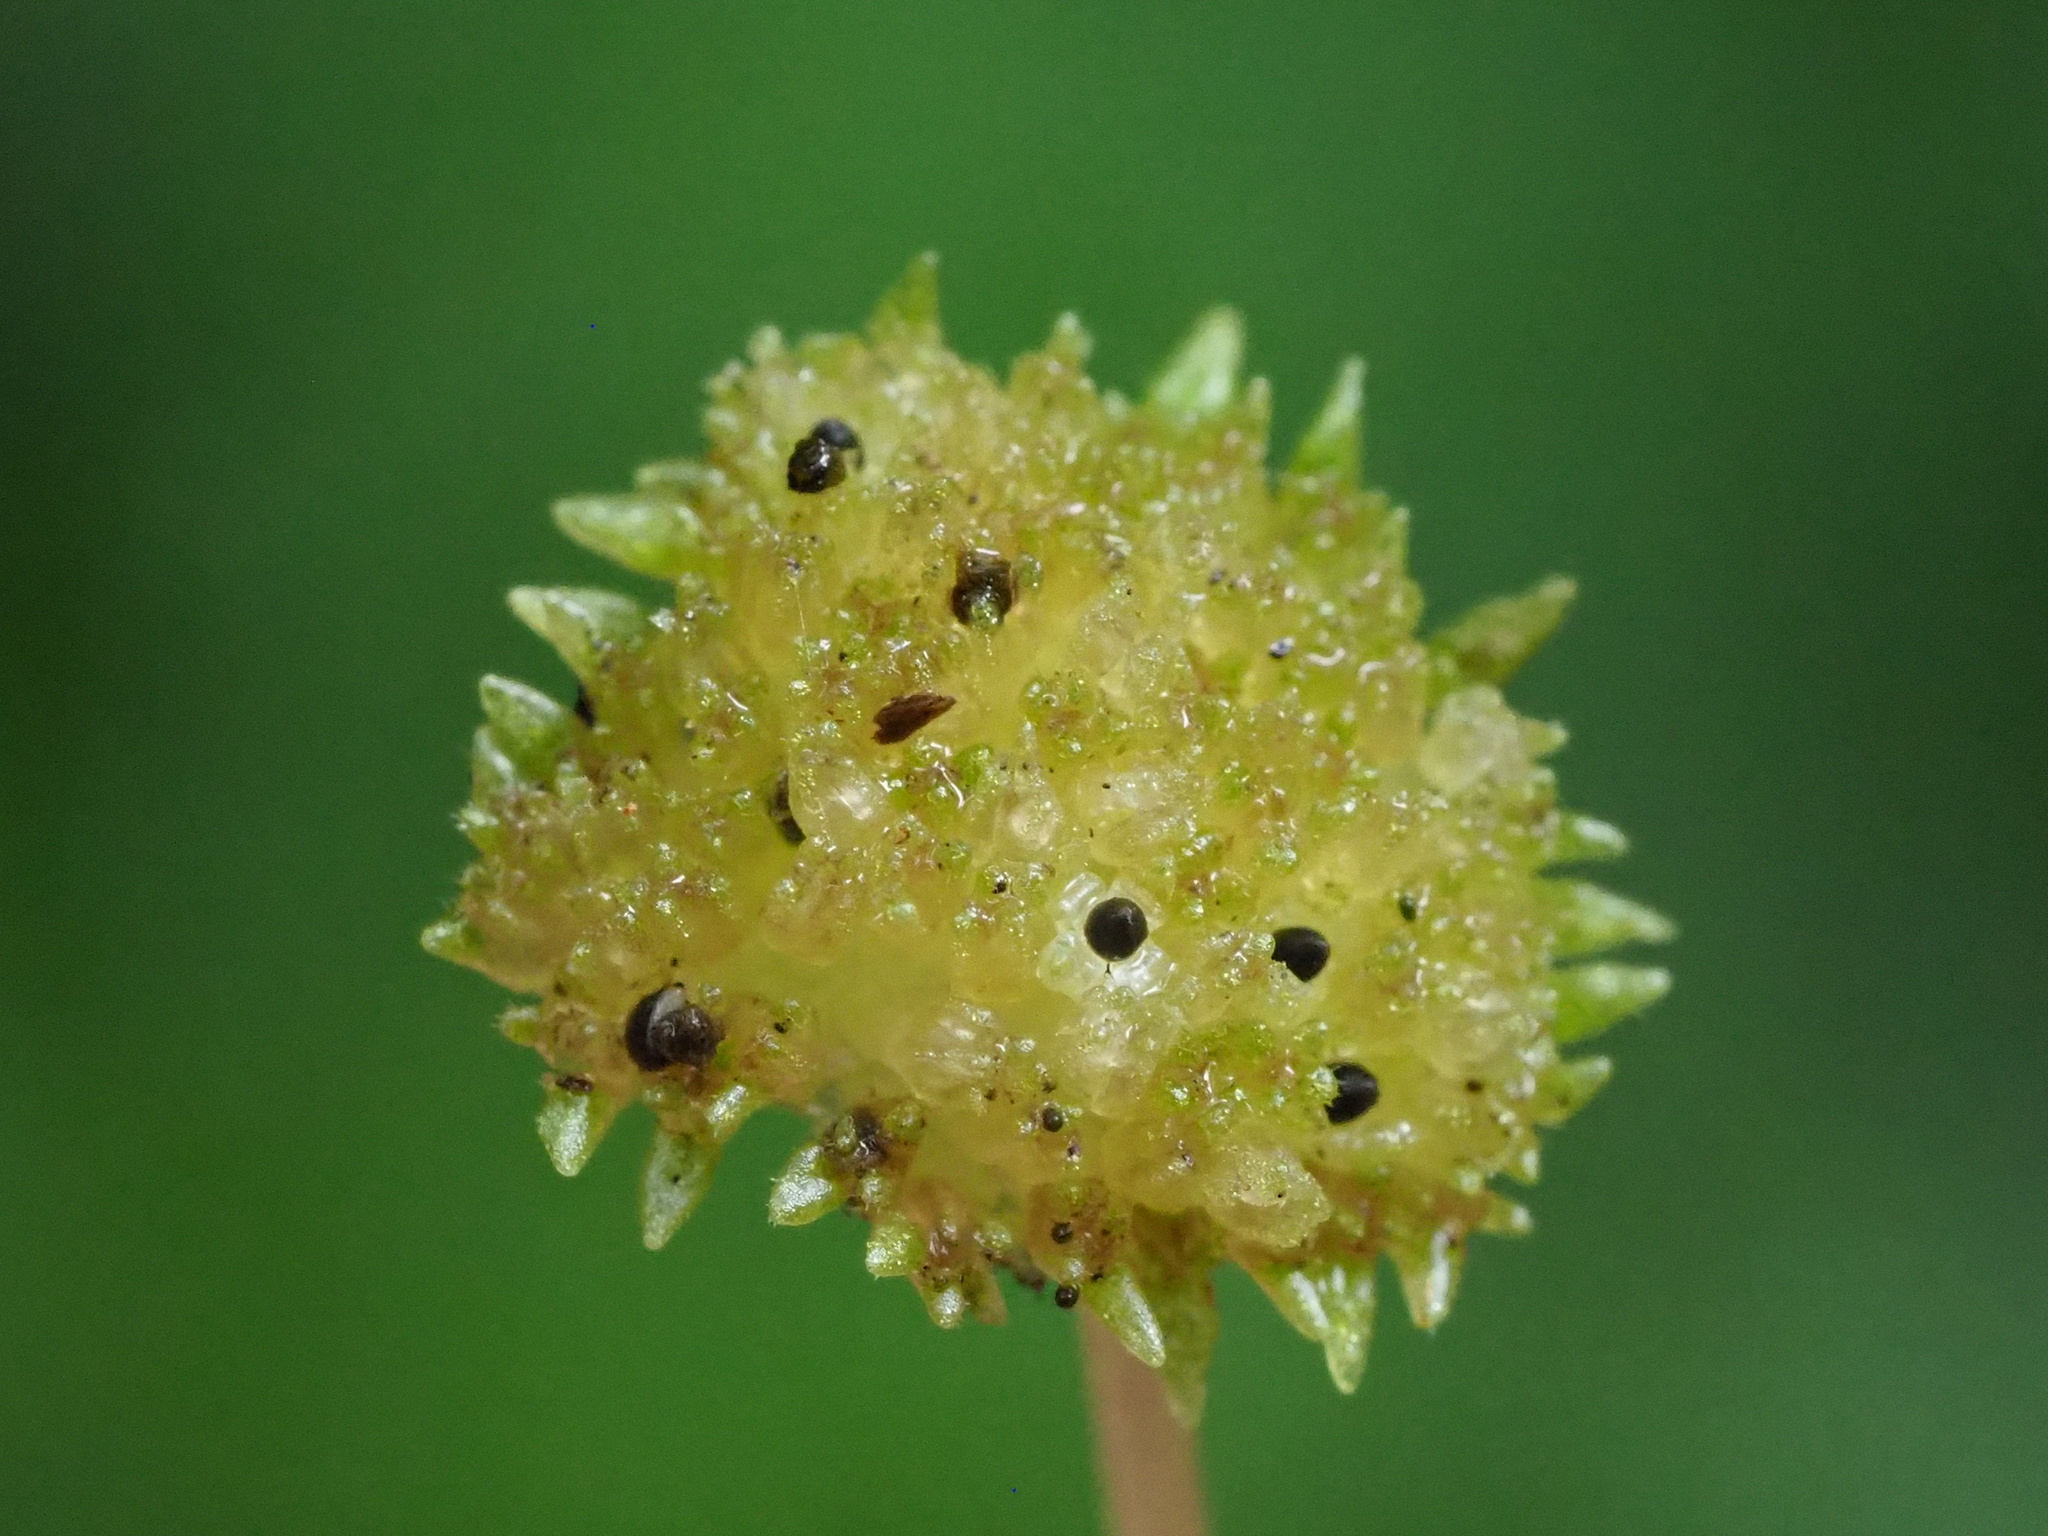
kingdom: Plantae
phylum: Tracheophyta
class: Magnoliopsida
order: Rosales
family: Urticaceae
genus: Lecanthus
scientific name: Lecanthus peduncularis
